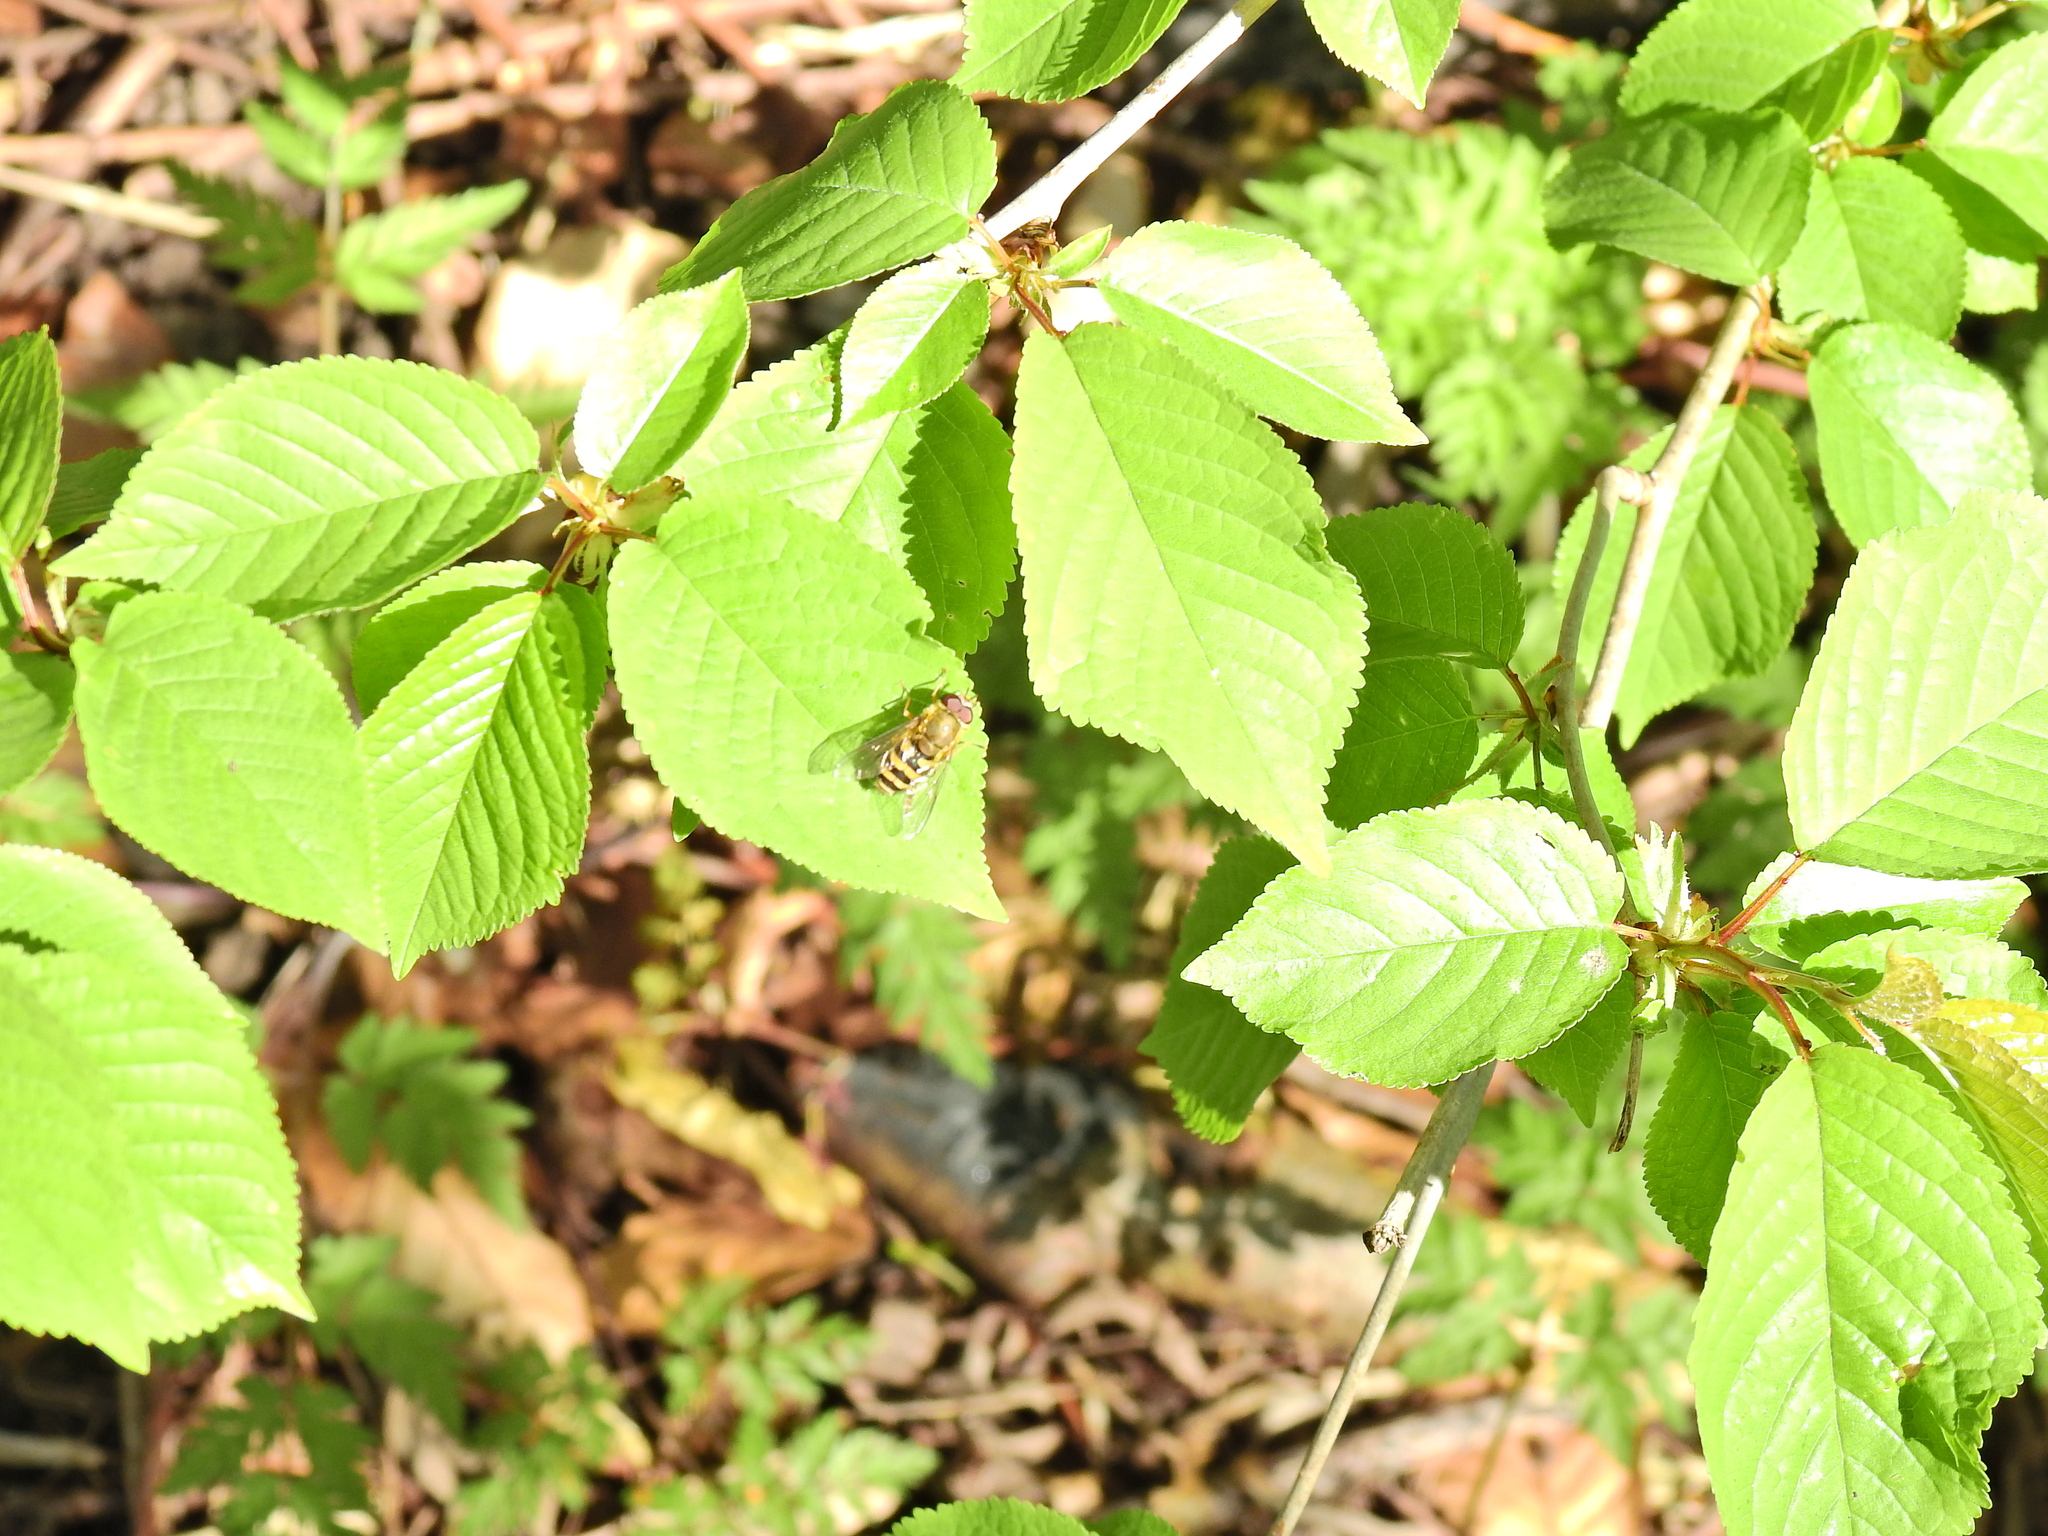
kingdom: Animalia
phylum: Arthropoda
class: Insecta
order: Diptera
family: Syrphidae
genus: Syrphus
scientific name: Syrphus
